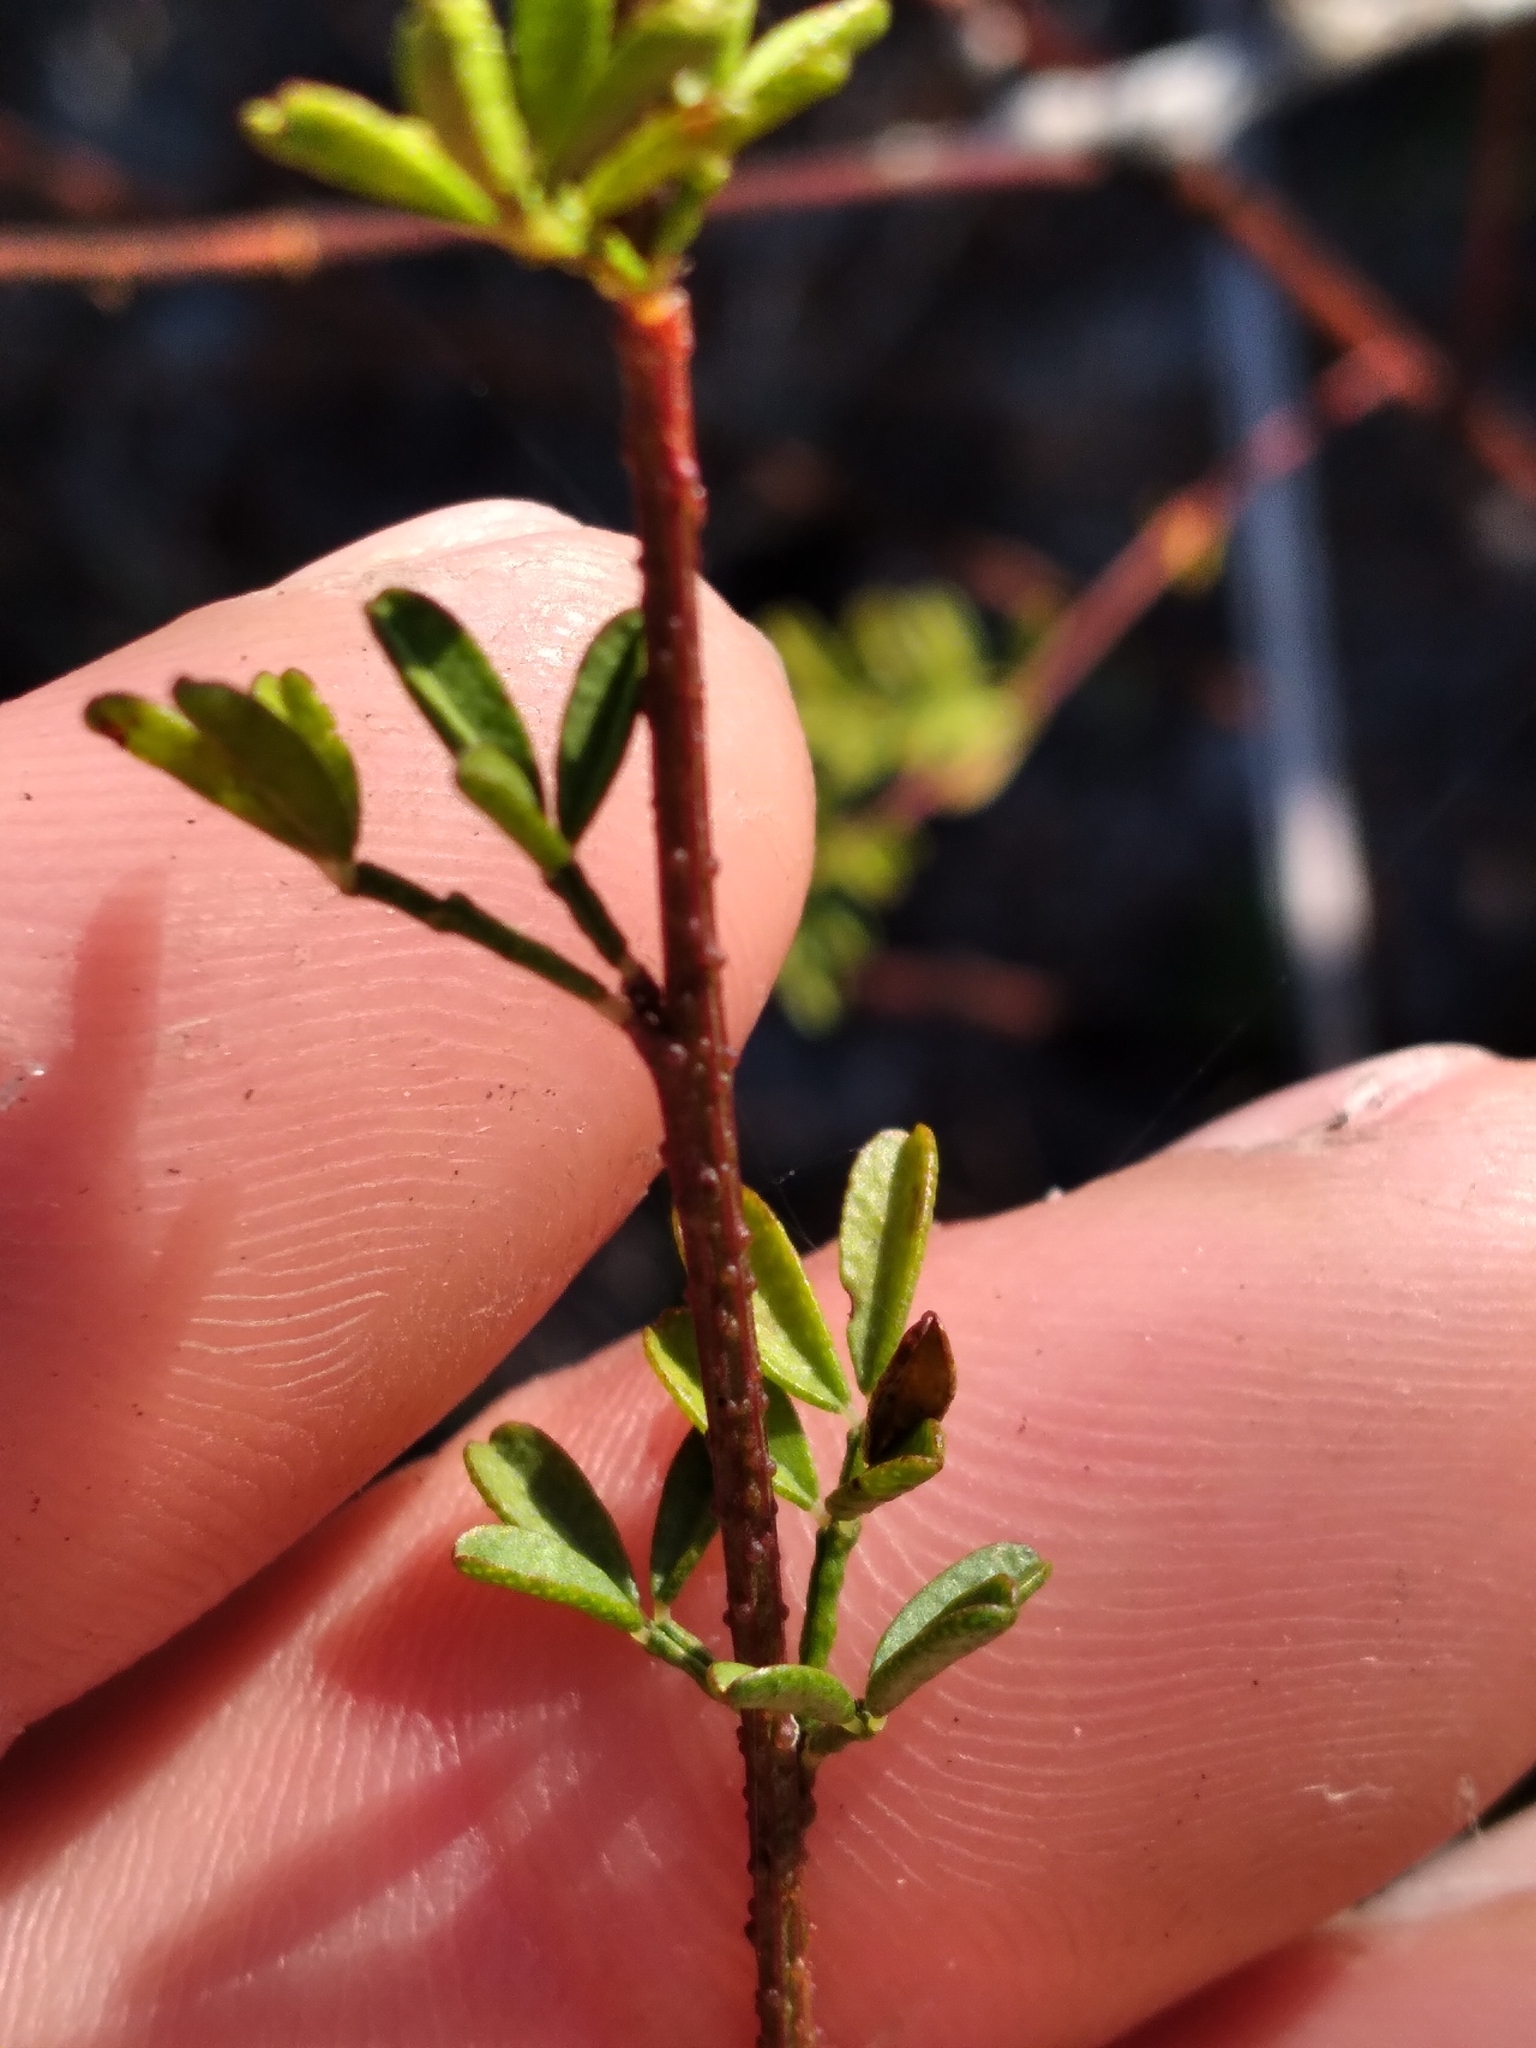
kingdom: Plantae
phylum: Tracheophyta
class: Magnoliopsida
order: Fabales
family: Fabaceae
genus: Dalea
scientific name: Dalea pinnata
